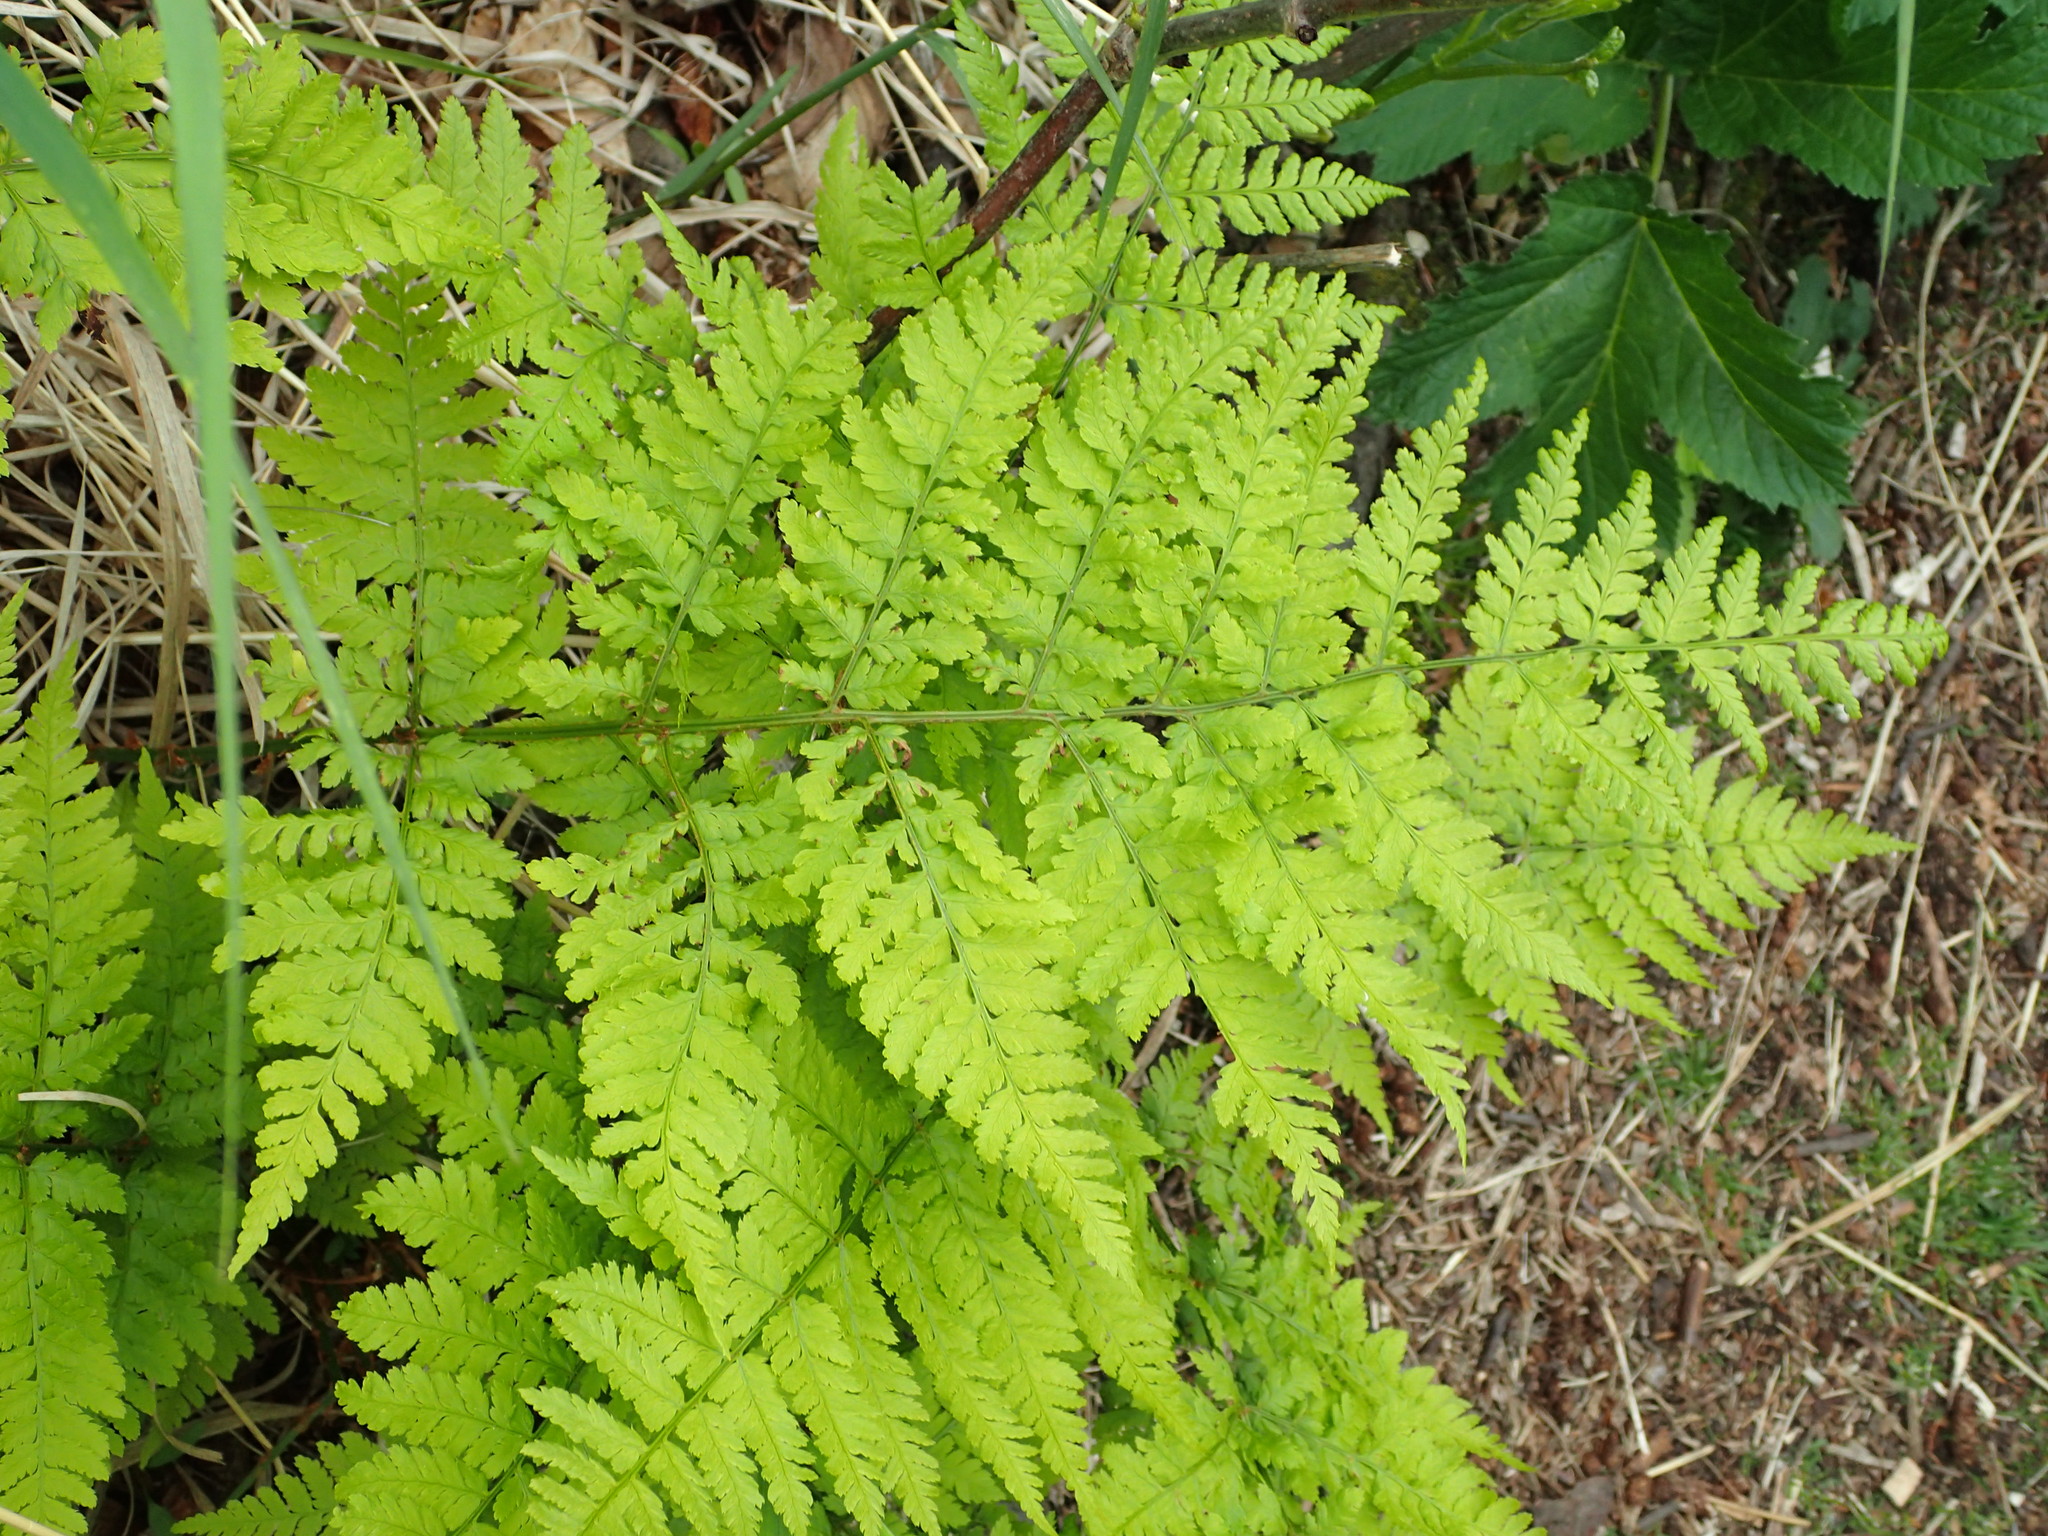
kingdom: Plantae
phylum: Tracheophyta
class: Polypodiopsida
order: Polypodiales
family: Dryopteridaceae
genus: Dryopteris
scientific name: Dryopteris expansa
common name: Northern buckler fern
